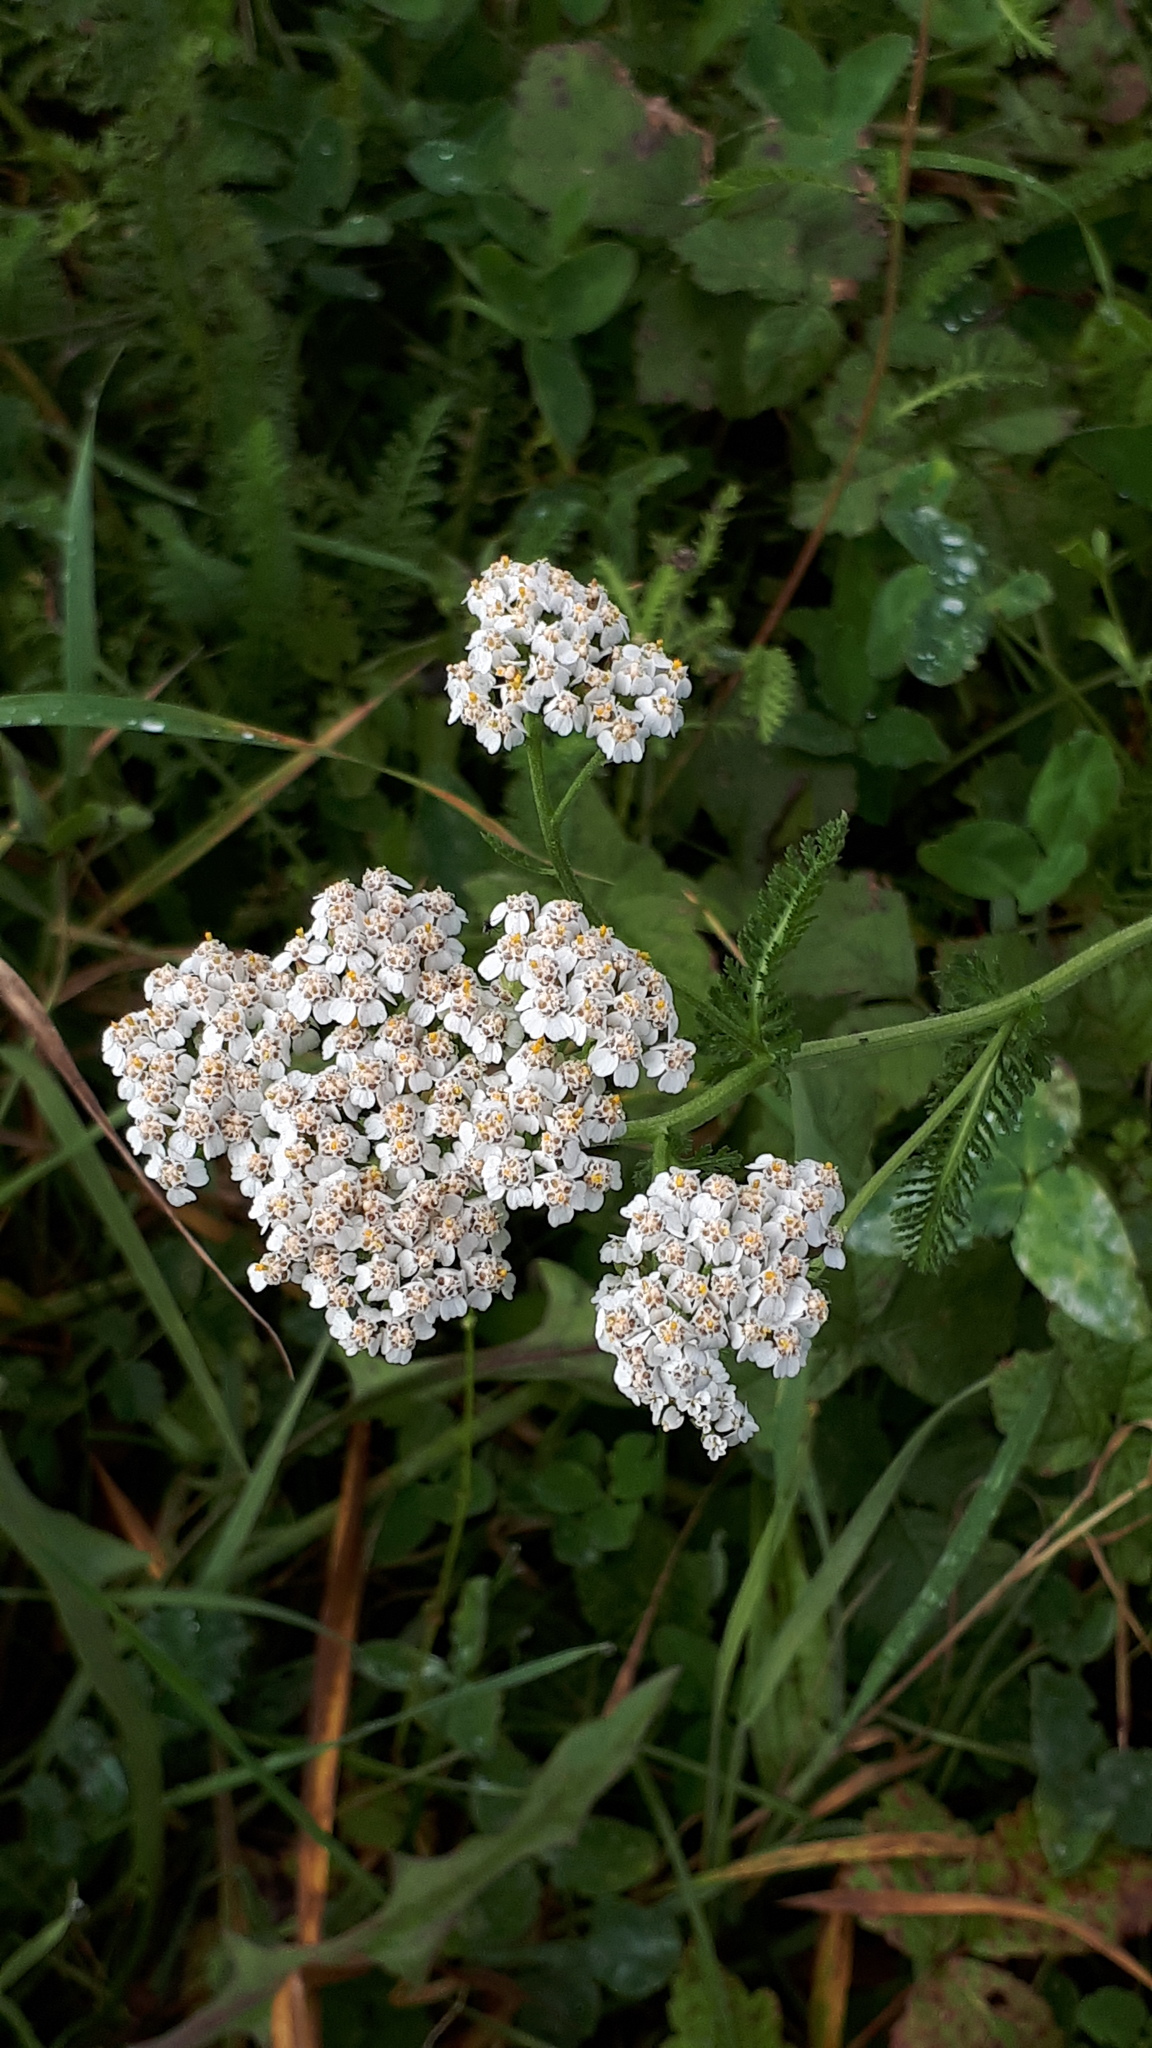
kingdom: Plantae
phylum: Tracheophyta
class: Magnoliopsida
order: Asterales
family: Asteraceae
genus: Achillea
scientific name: Achillea millefolium
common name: Yarrow
